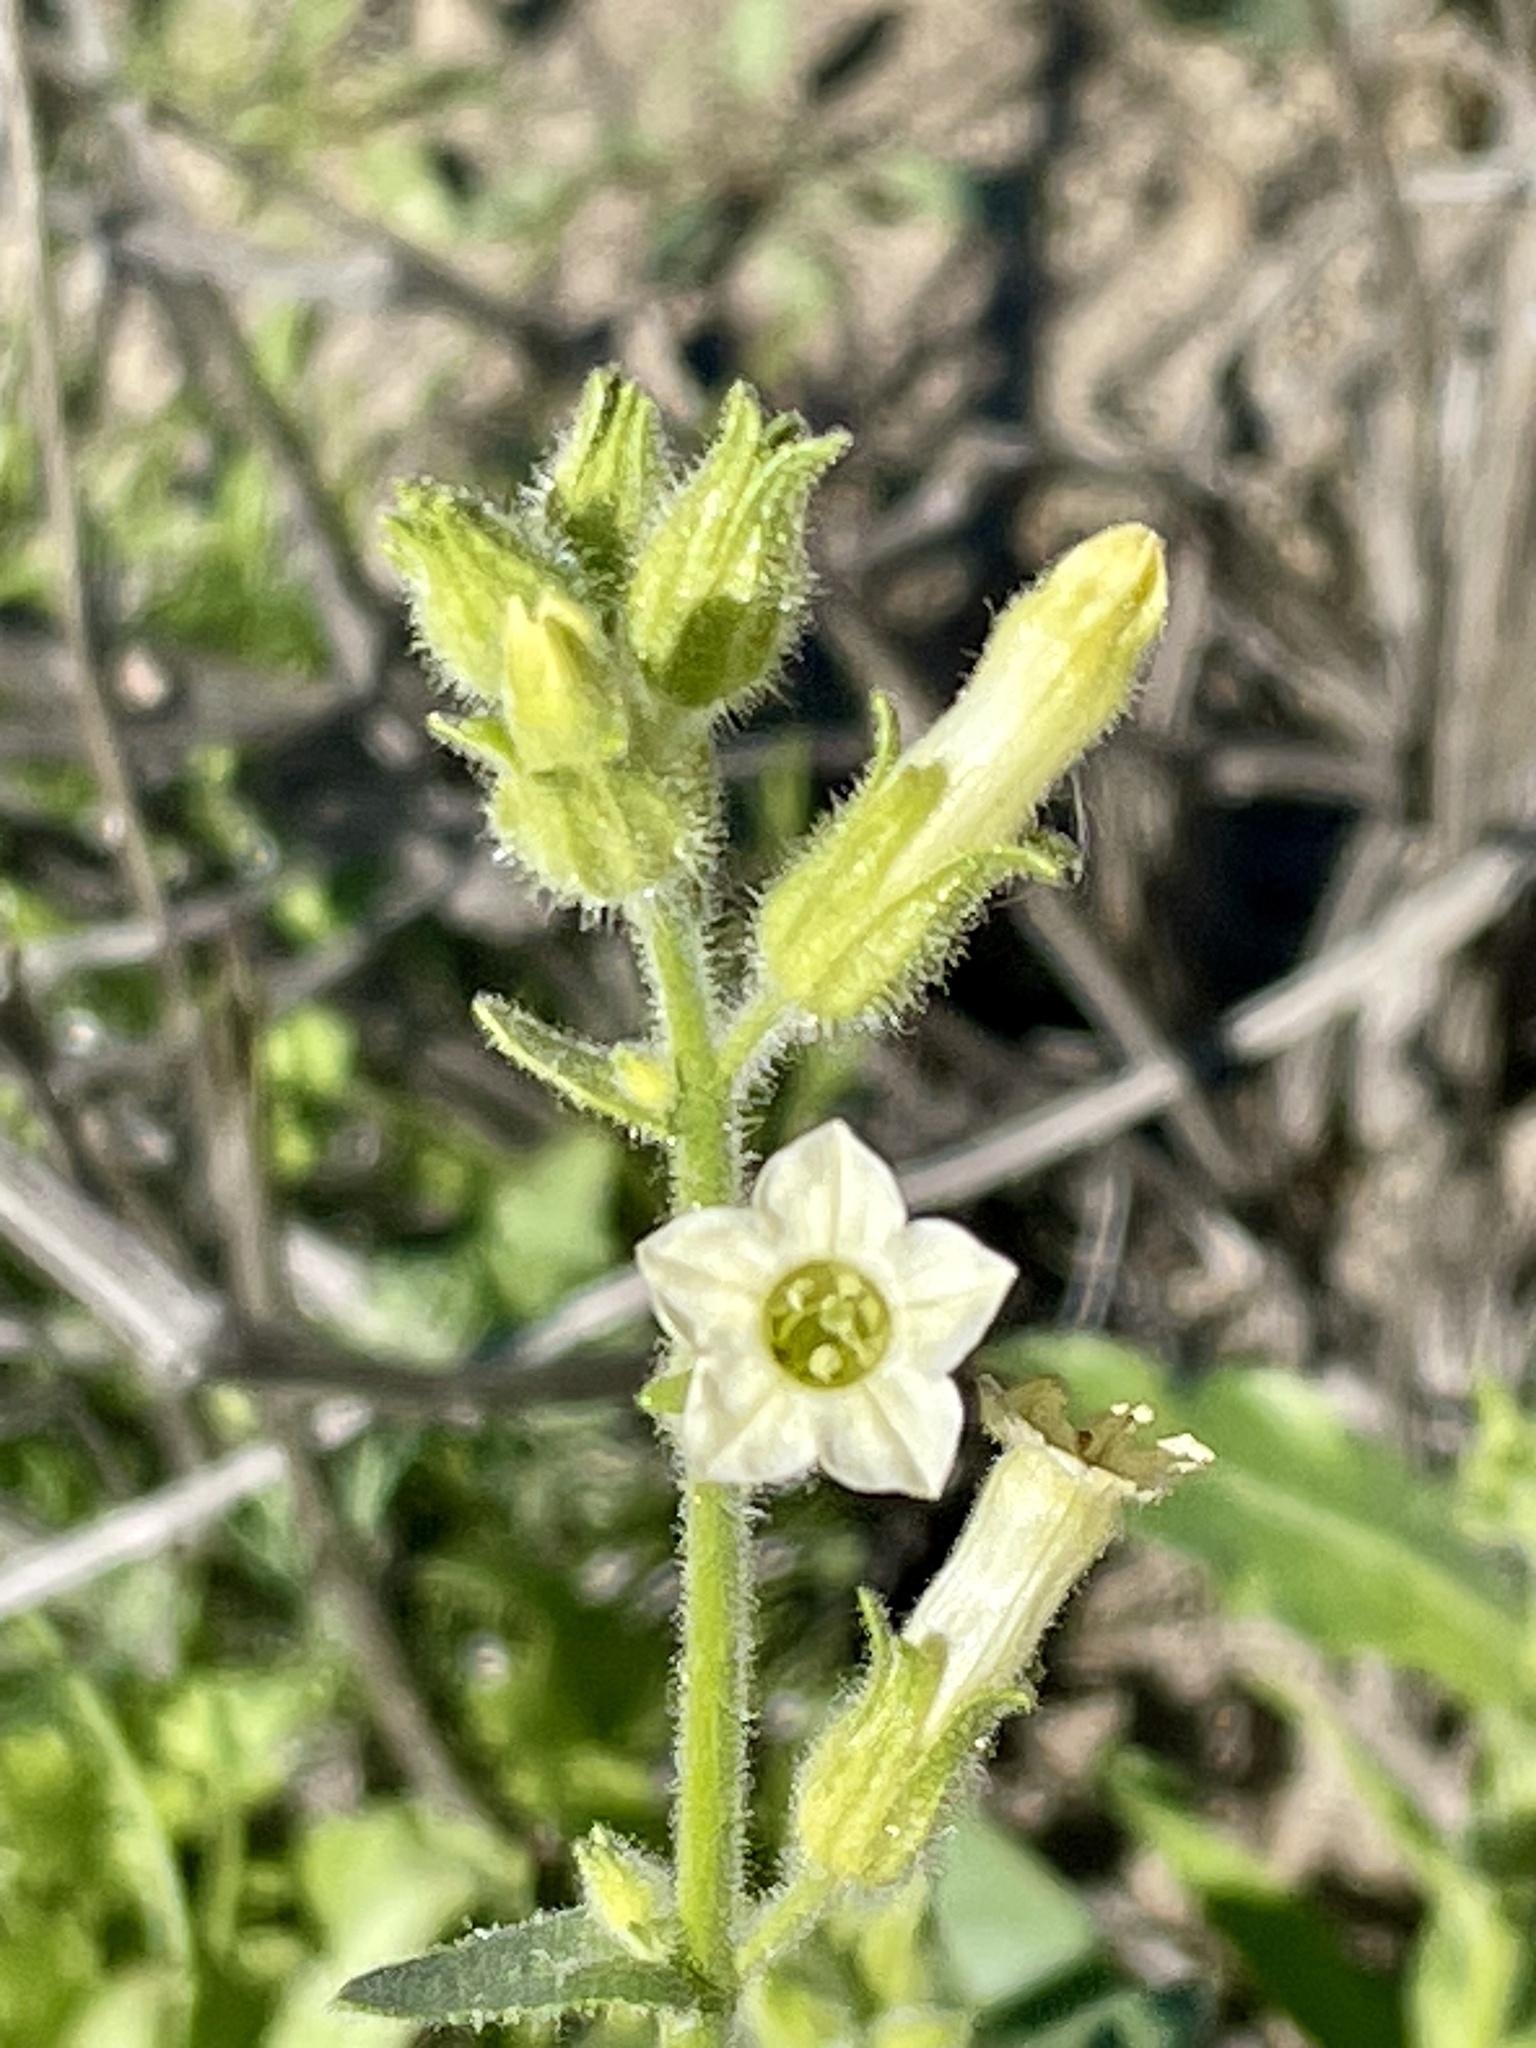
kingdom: Plantae
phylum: Tracheophyta
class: Magnoliopsida
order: Solanales
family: Solanaceae
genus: Nicotiana
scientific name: Nicotiana obtusifolia
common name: Desert tobacco
